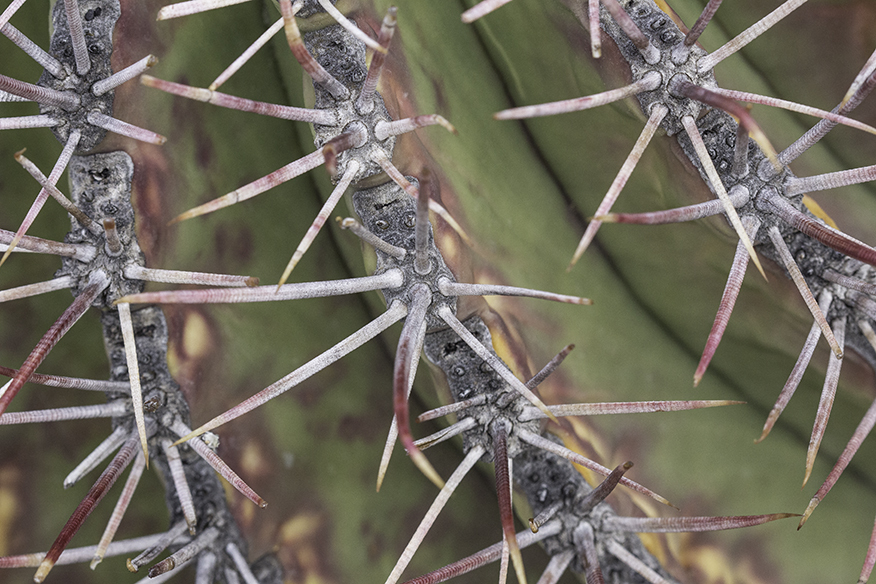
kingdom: Plantae
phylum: Tracheophyta
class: Magnoliopsida
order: Caryophyllales
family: Cactaceae
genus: Ferocactus
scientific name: Ferocactus emoryi
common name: Emory's barrel cactus
